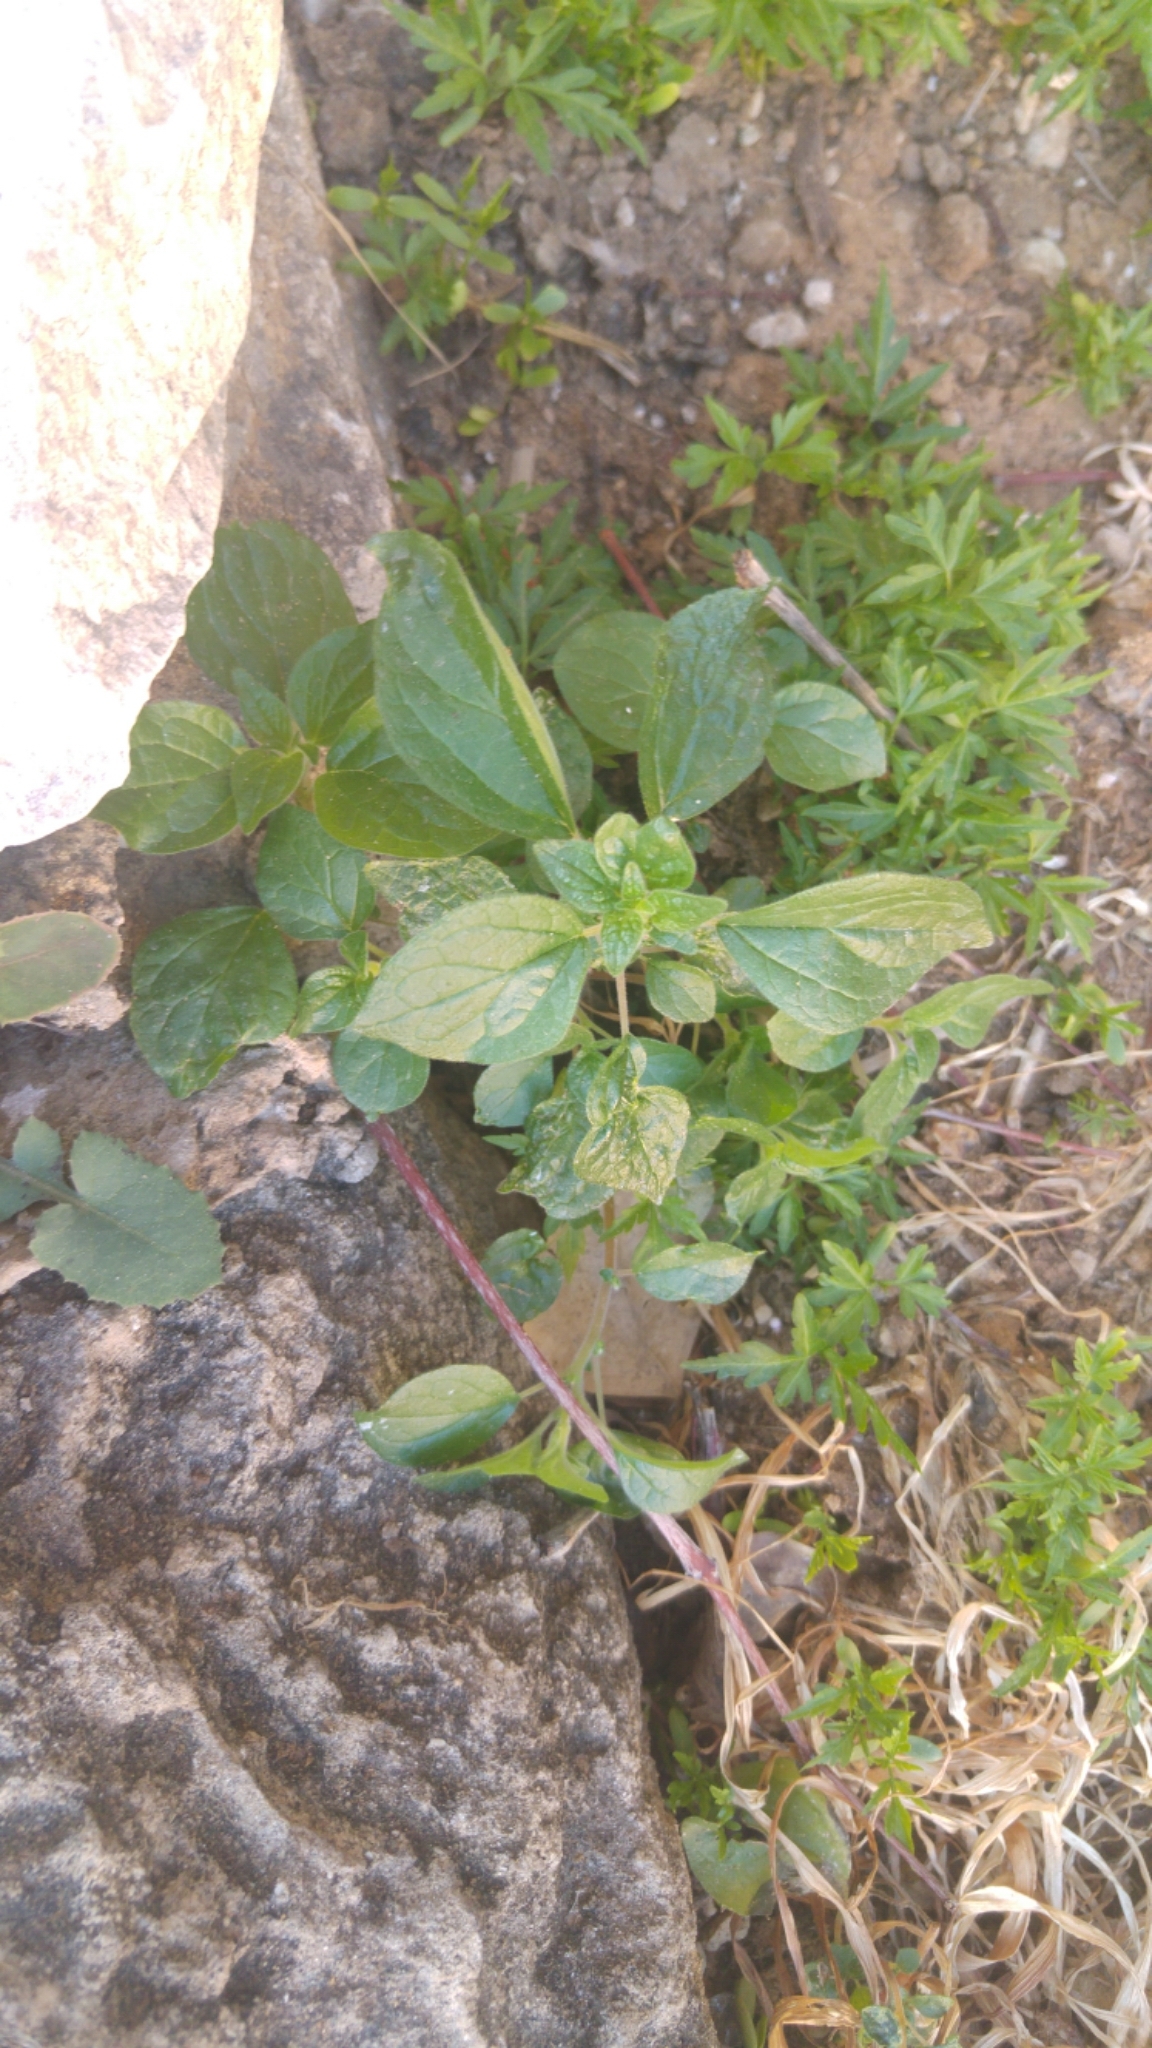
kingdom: Plantae
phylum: Tracheophyta
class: Magnoliopsida
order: Rosales
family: Urticaceae
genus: Parietaria
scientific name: Parietaria judaica
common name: Pellitory-of-the-wall
